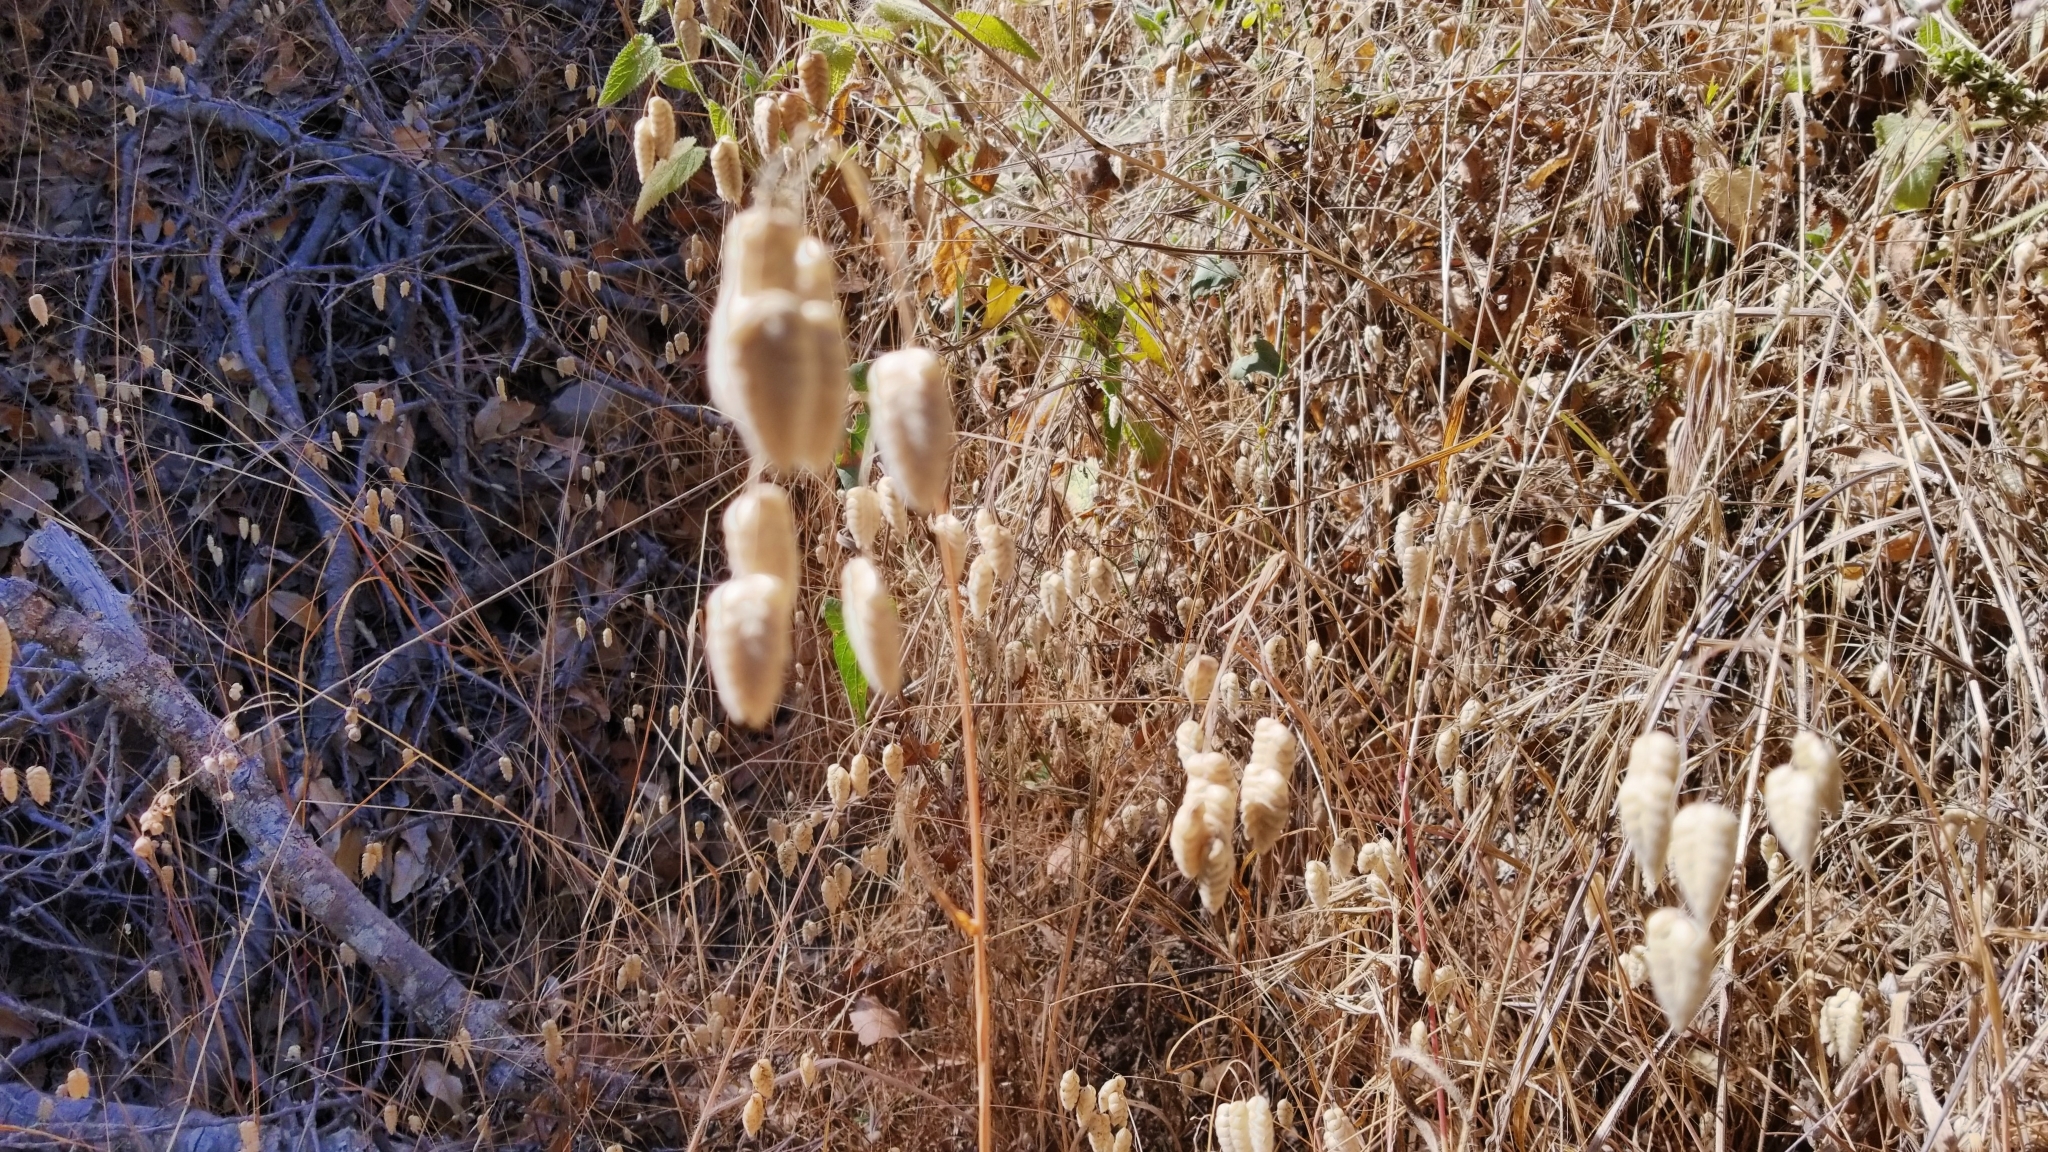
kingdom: Plantae
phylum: Tracheophyta
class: Liliopsida
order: Poales
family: Poaceae
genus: Briza
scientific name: Briza maxima
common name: Big quakinggrass
